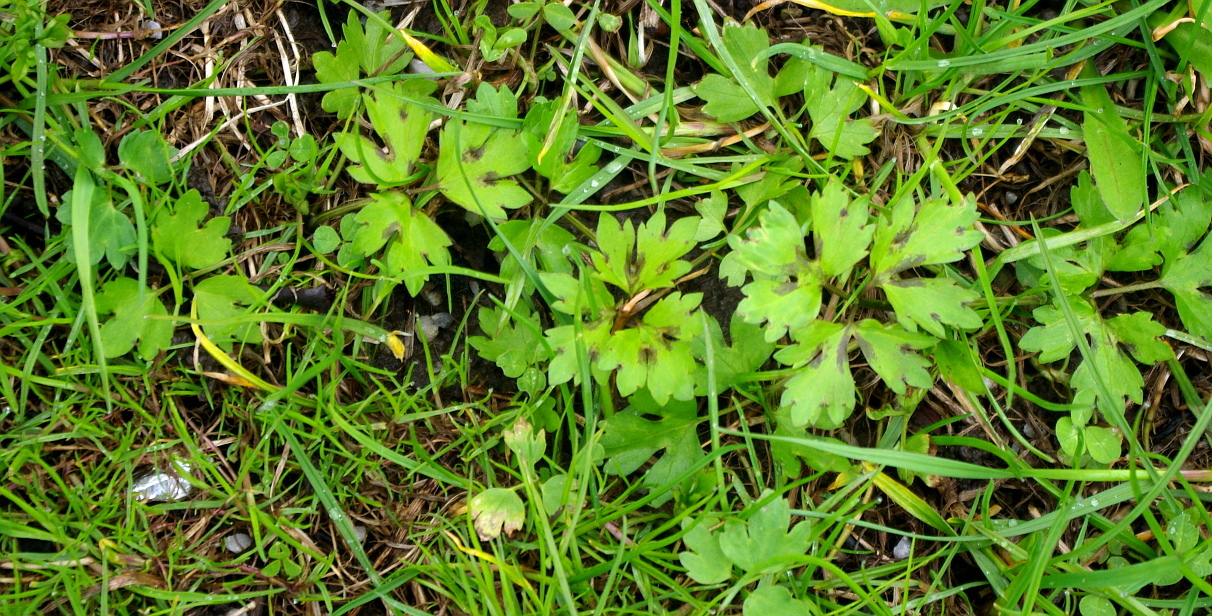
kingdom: Plantae
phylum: Tracheophyta
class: Magnoliopsida
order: Ranunculales
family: Ranunculaceae
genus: Ranunculus
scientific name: Ranunculus repens
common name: Creeping buttercup
